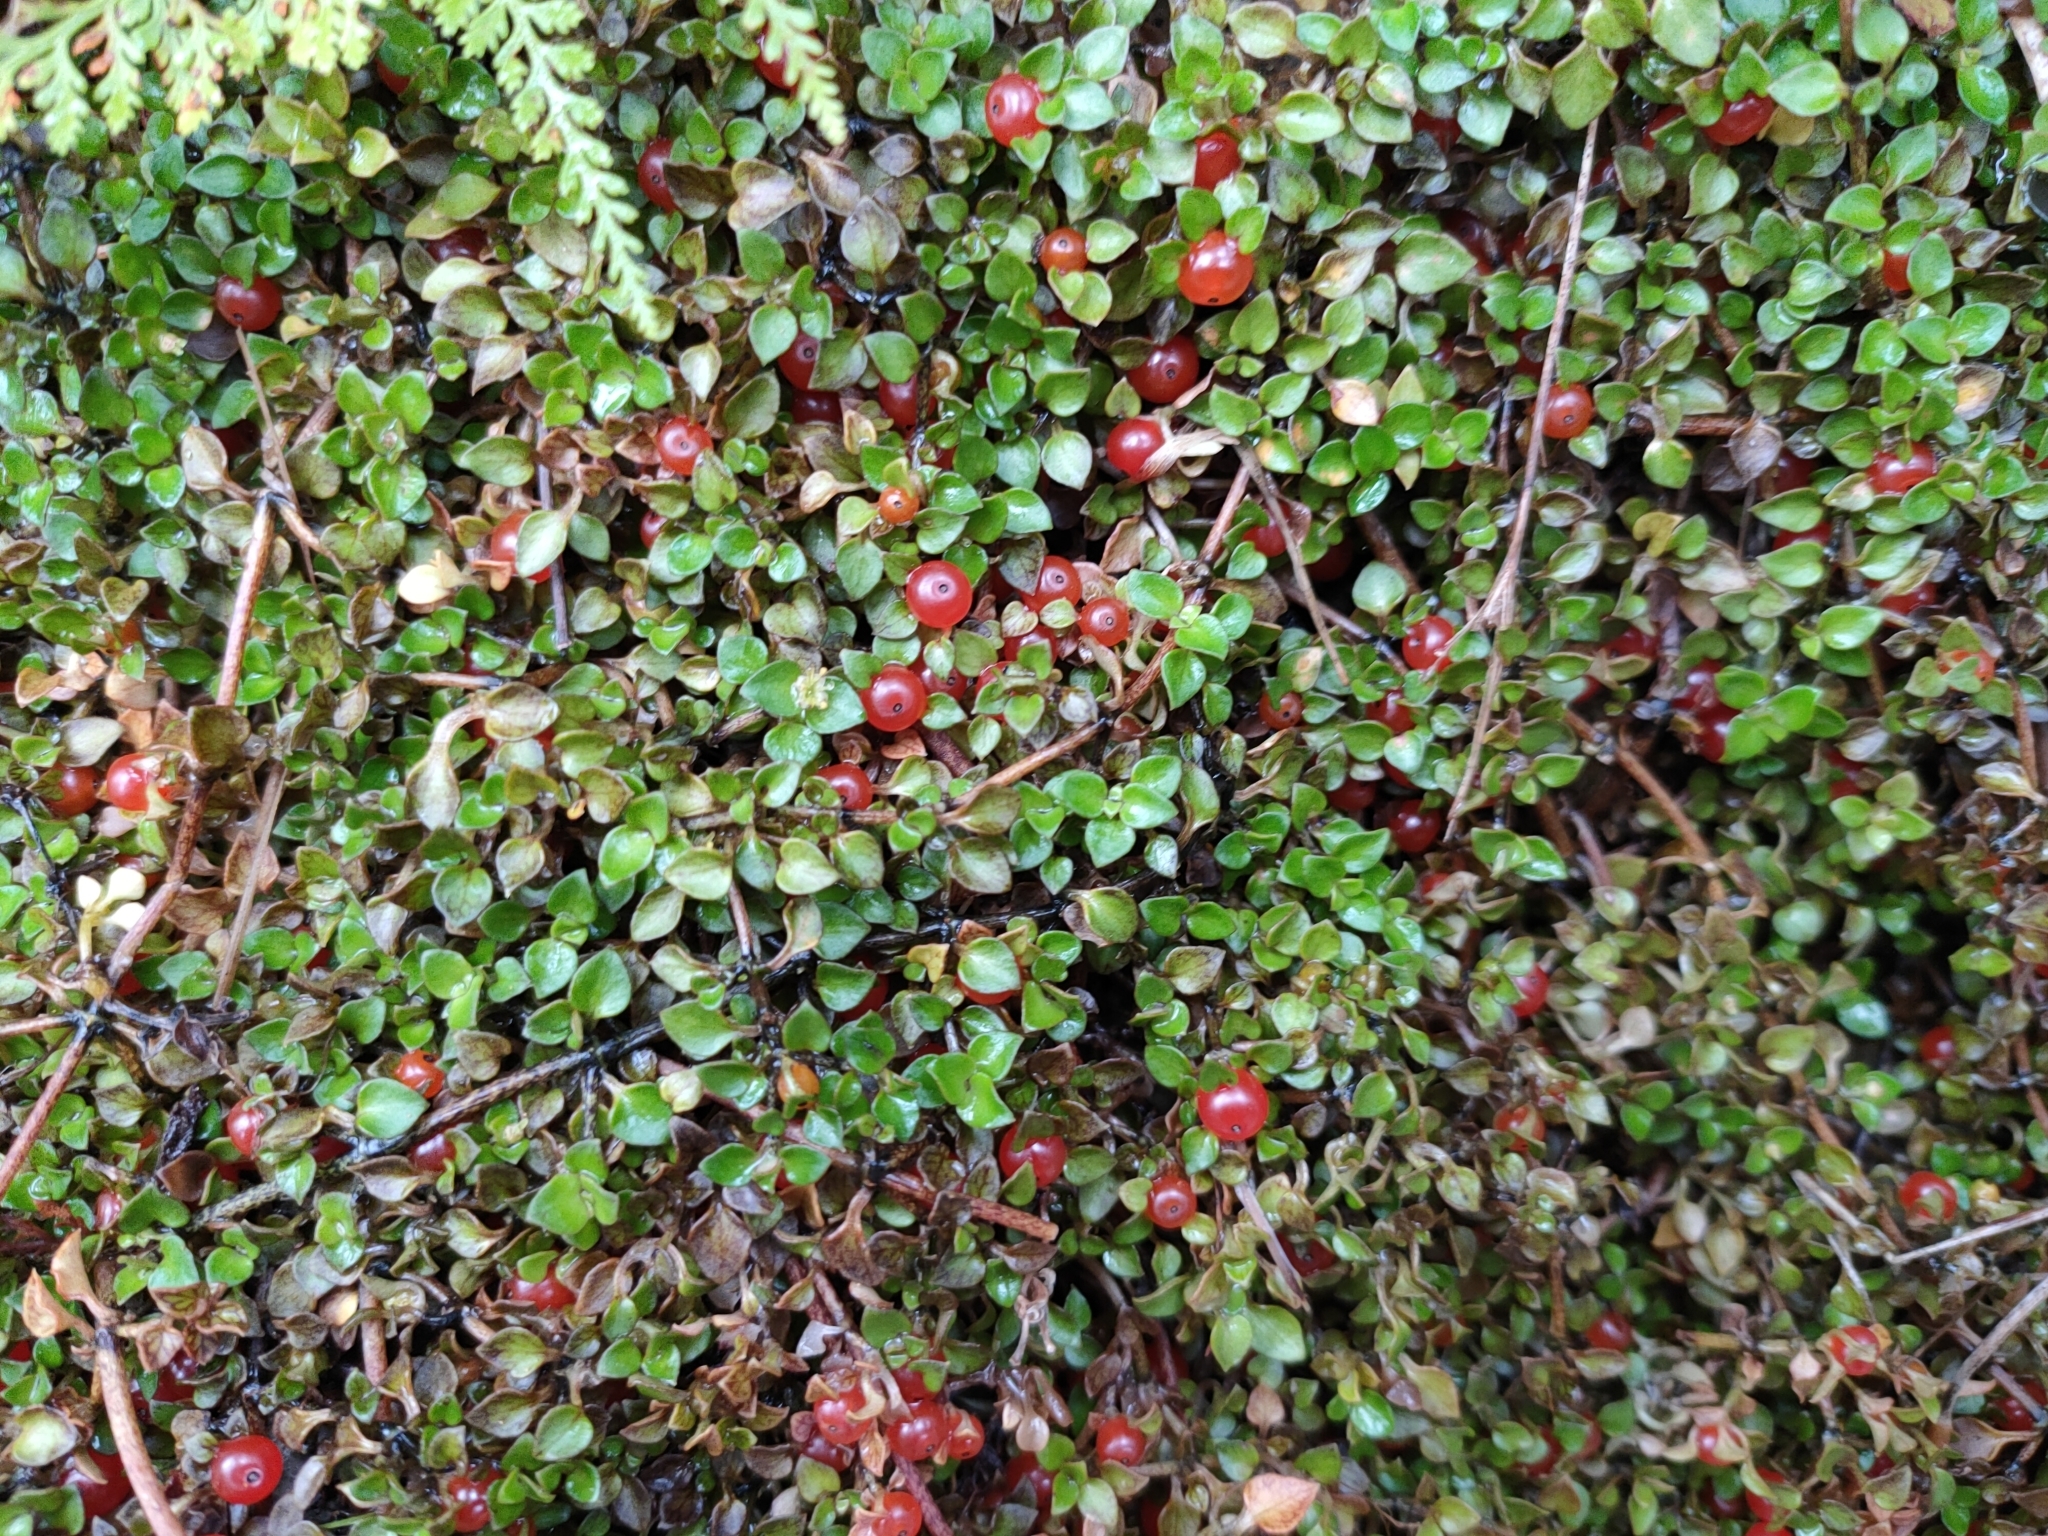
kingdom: Plantae
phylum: Tracheophyta
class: Magnoliopsida
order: Gentianales
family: Rubiaceae
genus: Nertera
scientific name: Nertera granadensis
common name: Beadplant
